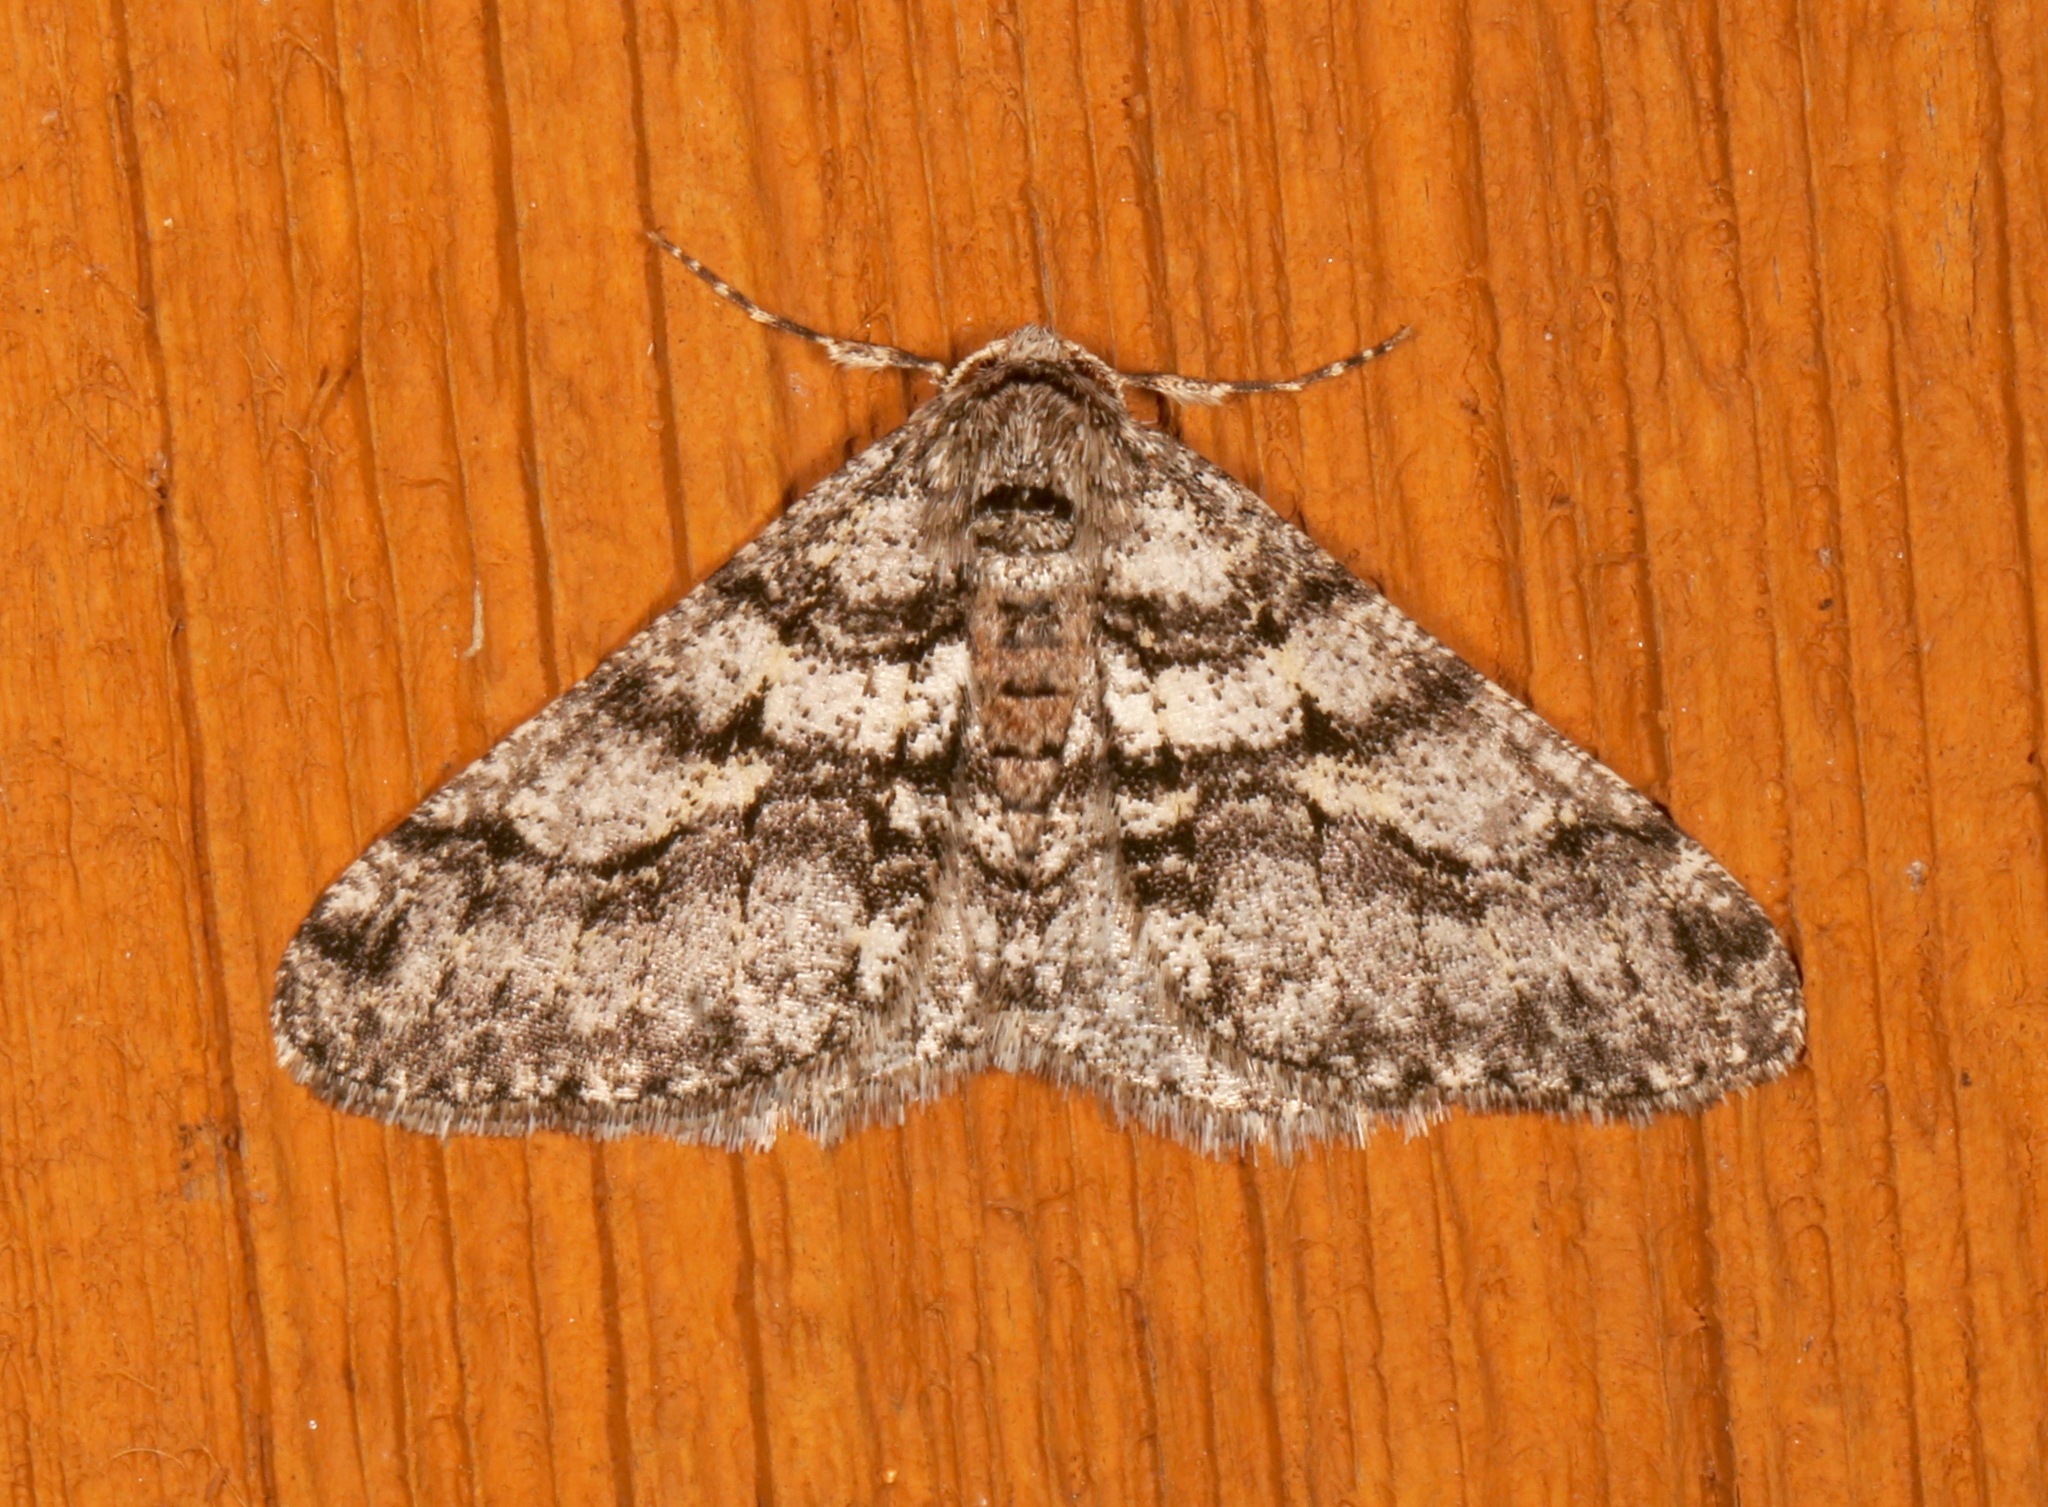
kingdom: Animalia
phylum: Arthropoda
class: Insecta
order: Lepidoptera
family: Geometridae
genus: Phigalia
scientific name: Phigalia titea
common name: Spiny looper
